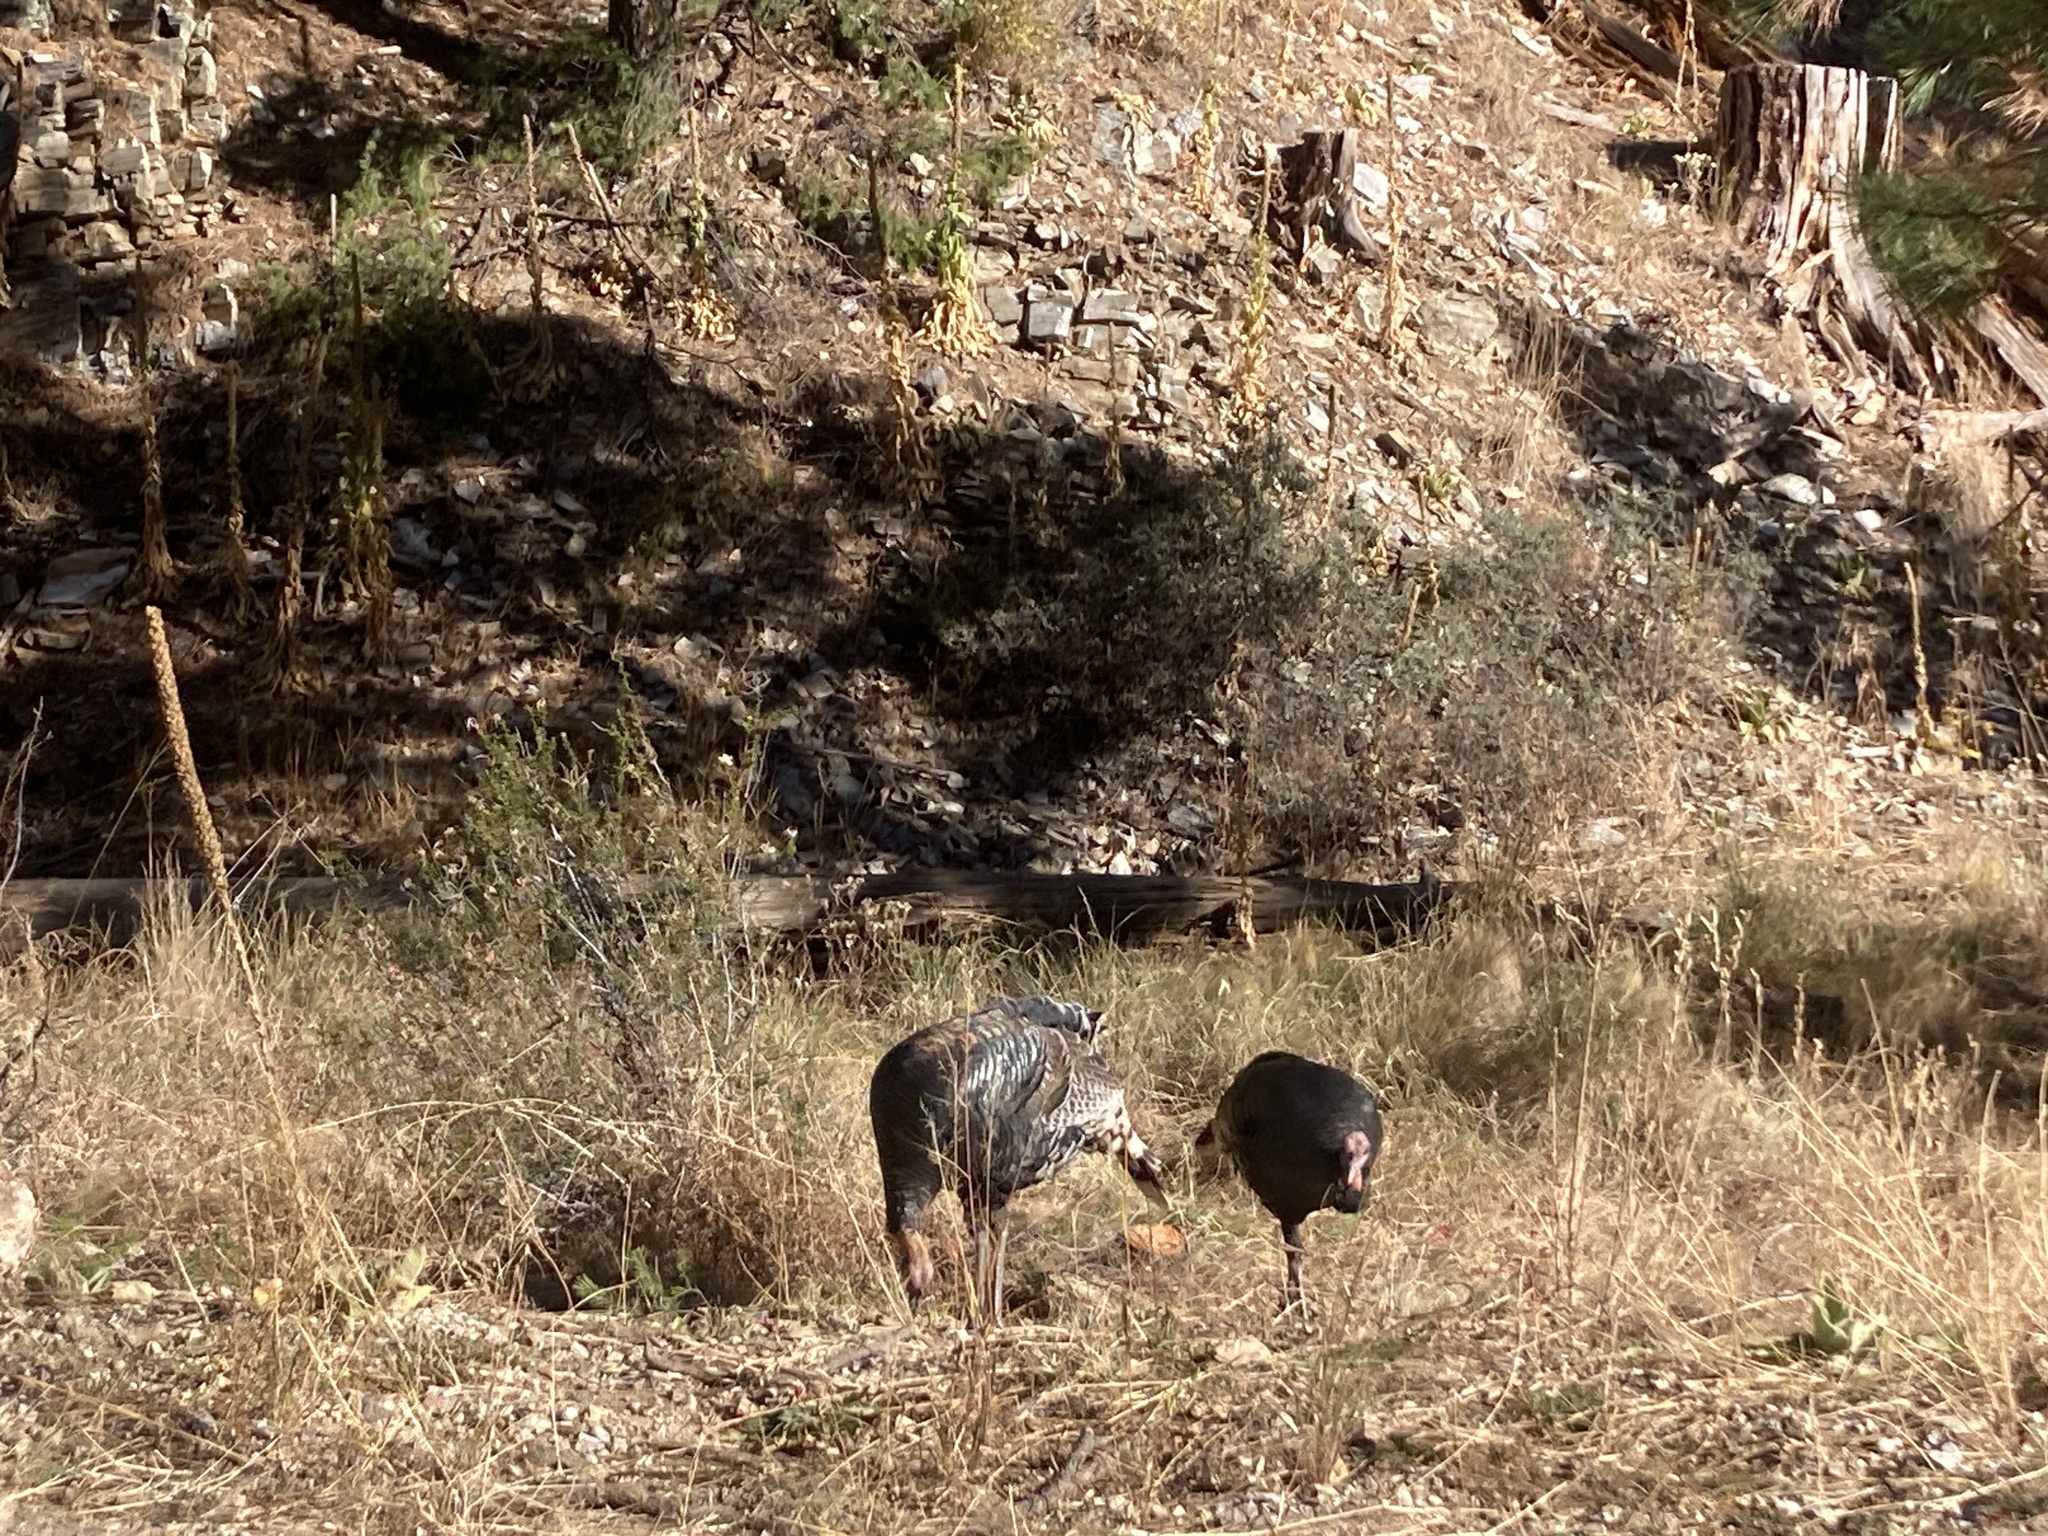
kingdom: Animalia
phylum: Chordata
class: Aves
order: Galliformes
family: Phasianidae
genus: Meleagris
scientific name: Meleagris gallopavo
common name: Wild turkey
